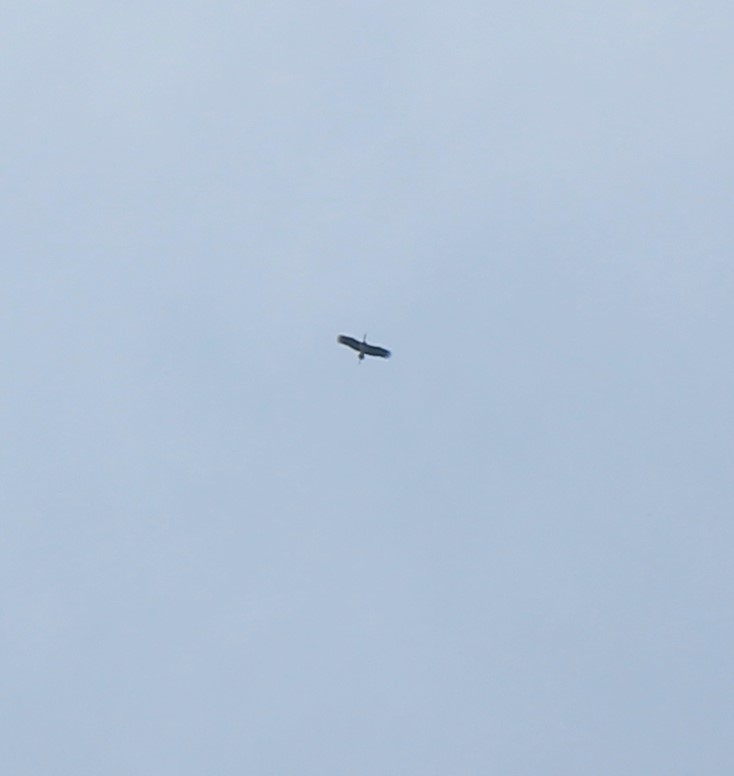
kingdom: Animalia
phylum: Chordata
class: Aves
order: Ciconiiformes
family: Ciconiidae
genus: Ciconia
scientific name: Ciconia nigra
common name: Black stork
